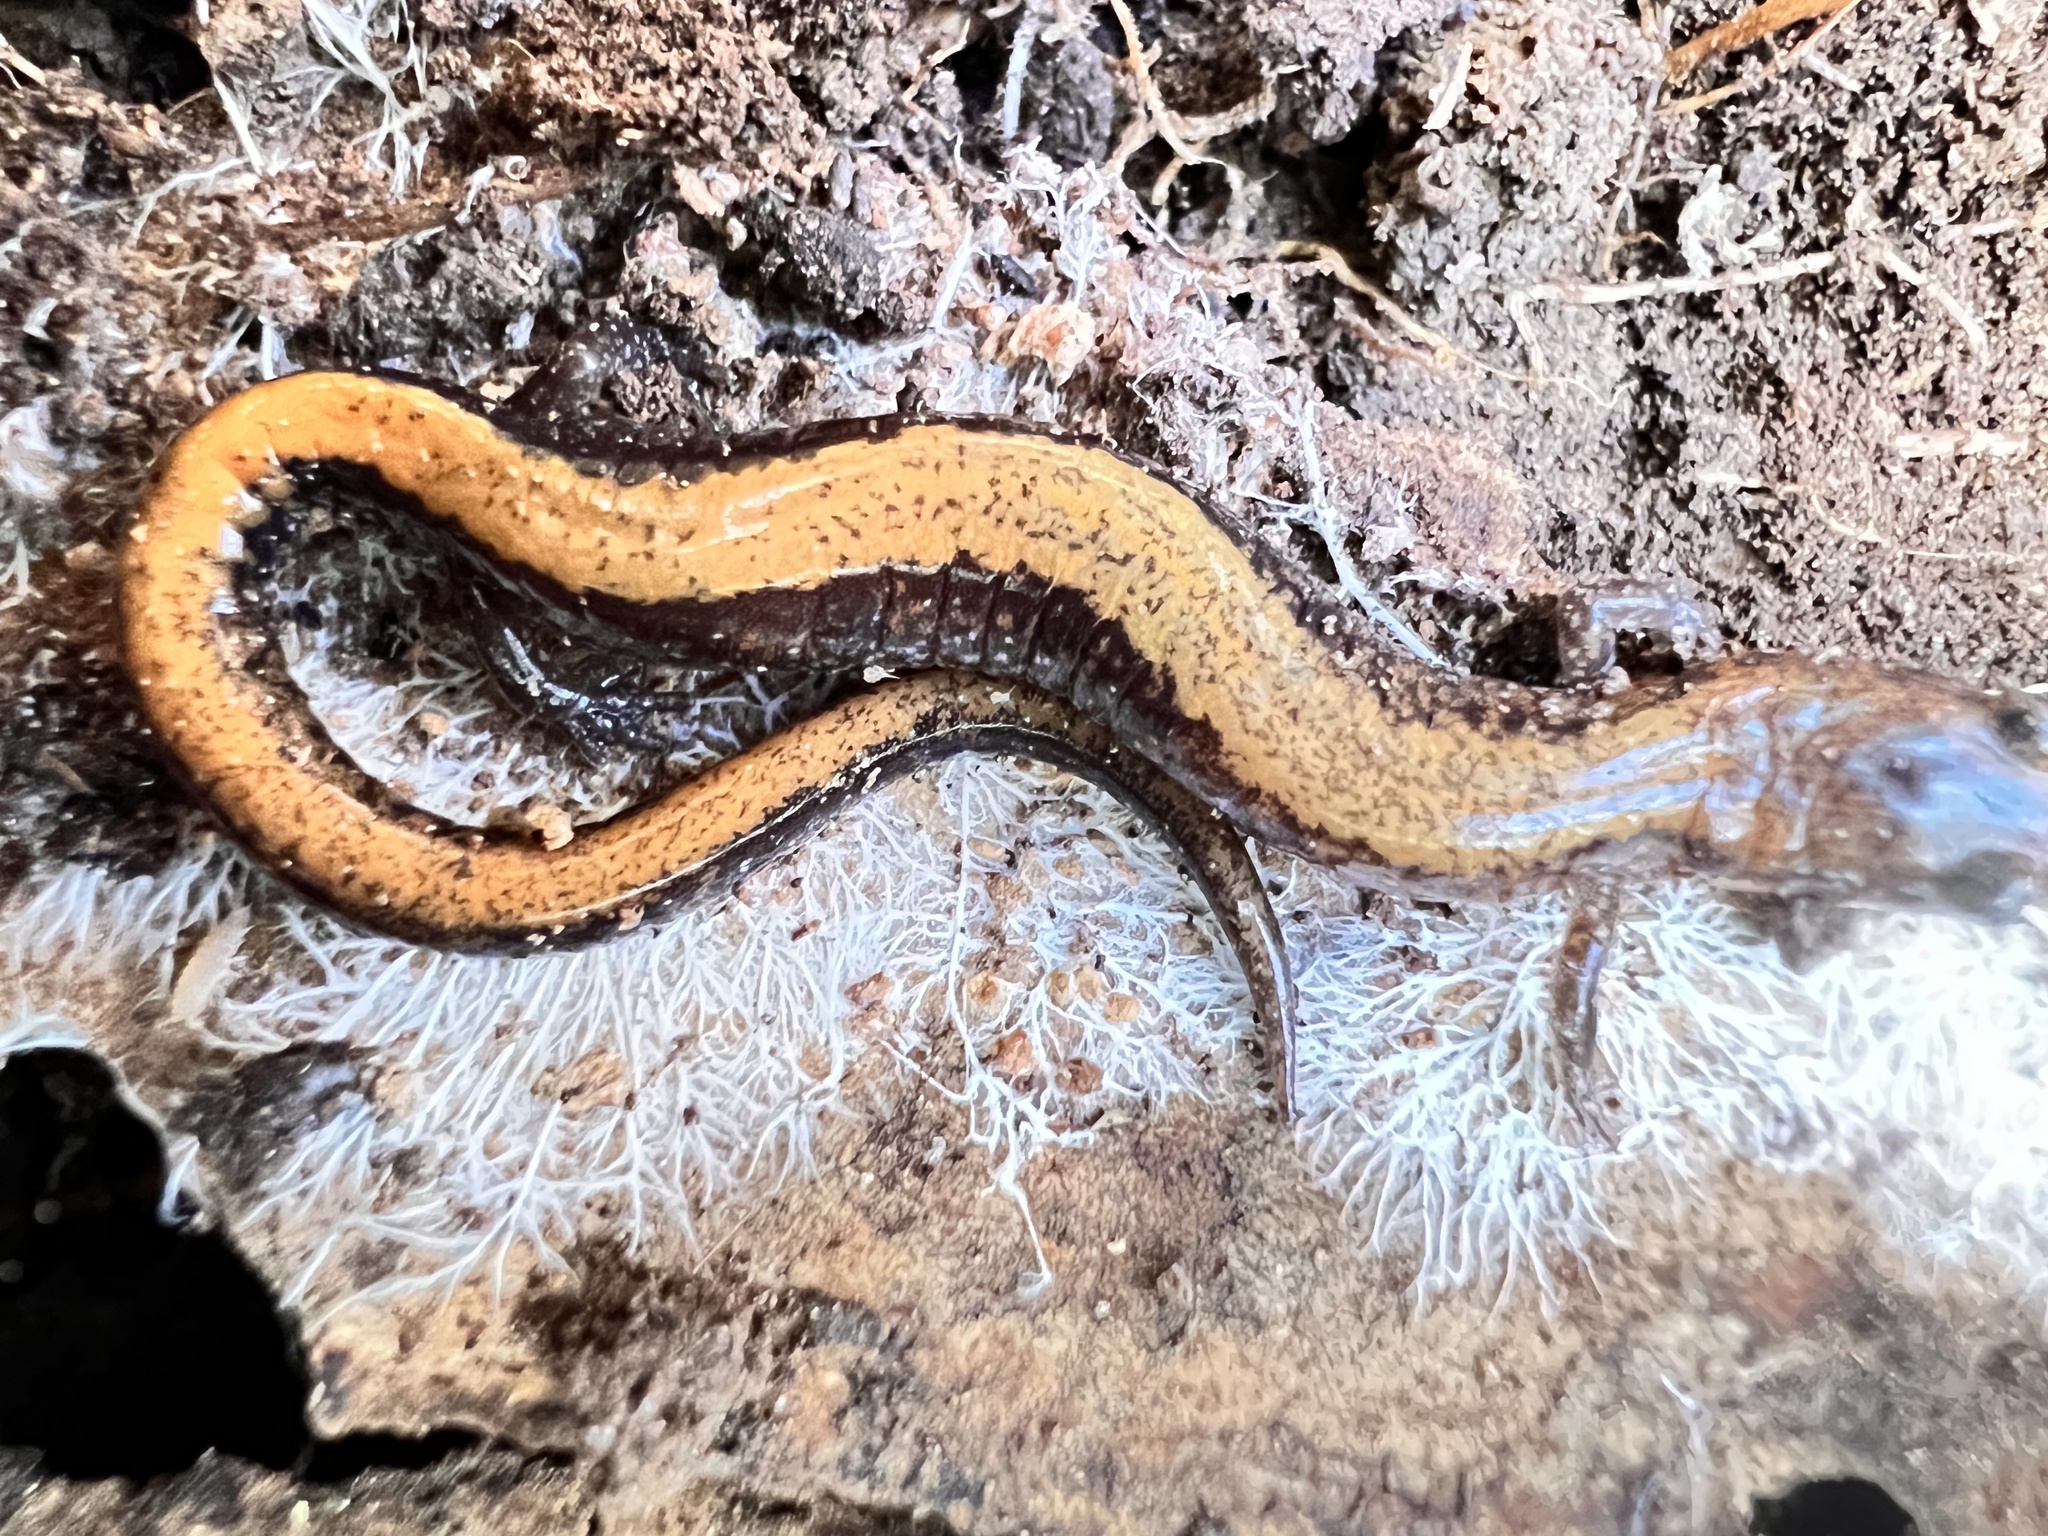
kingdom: Animalia
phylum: Chordata
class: Amphibia
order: Caudata
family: Plethodontidae
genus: Plethodon
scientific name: Plethodon cinereus
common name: Redback salamander
